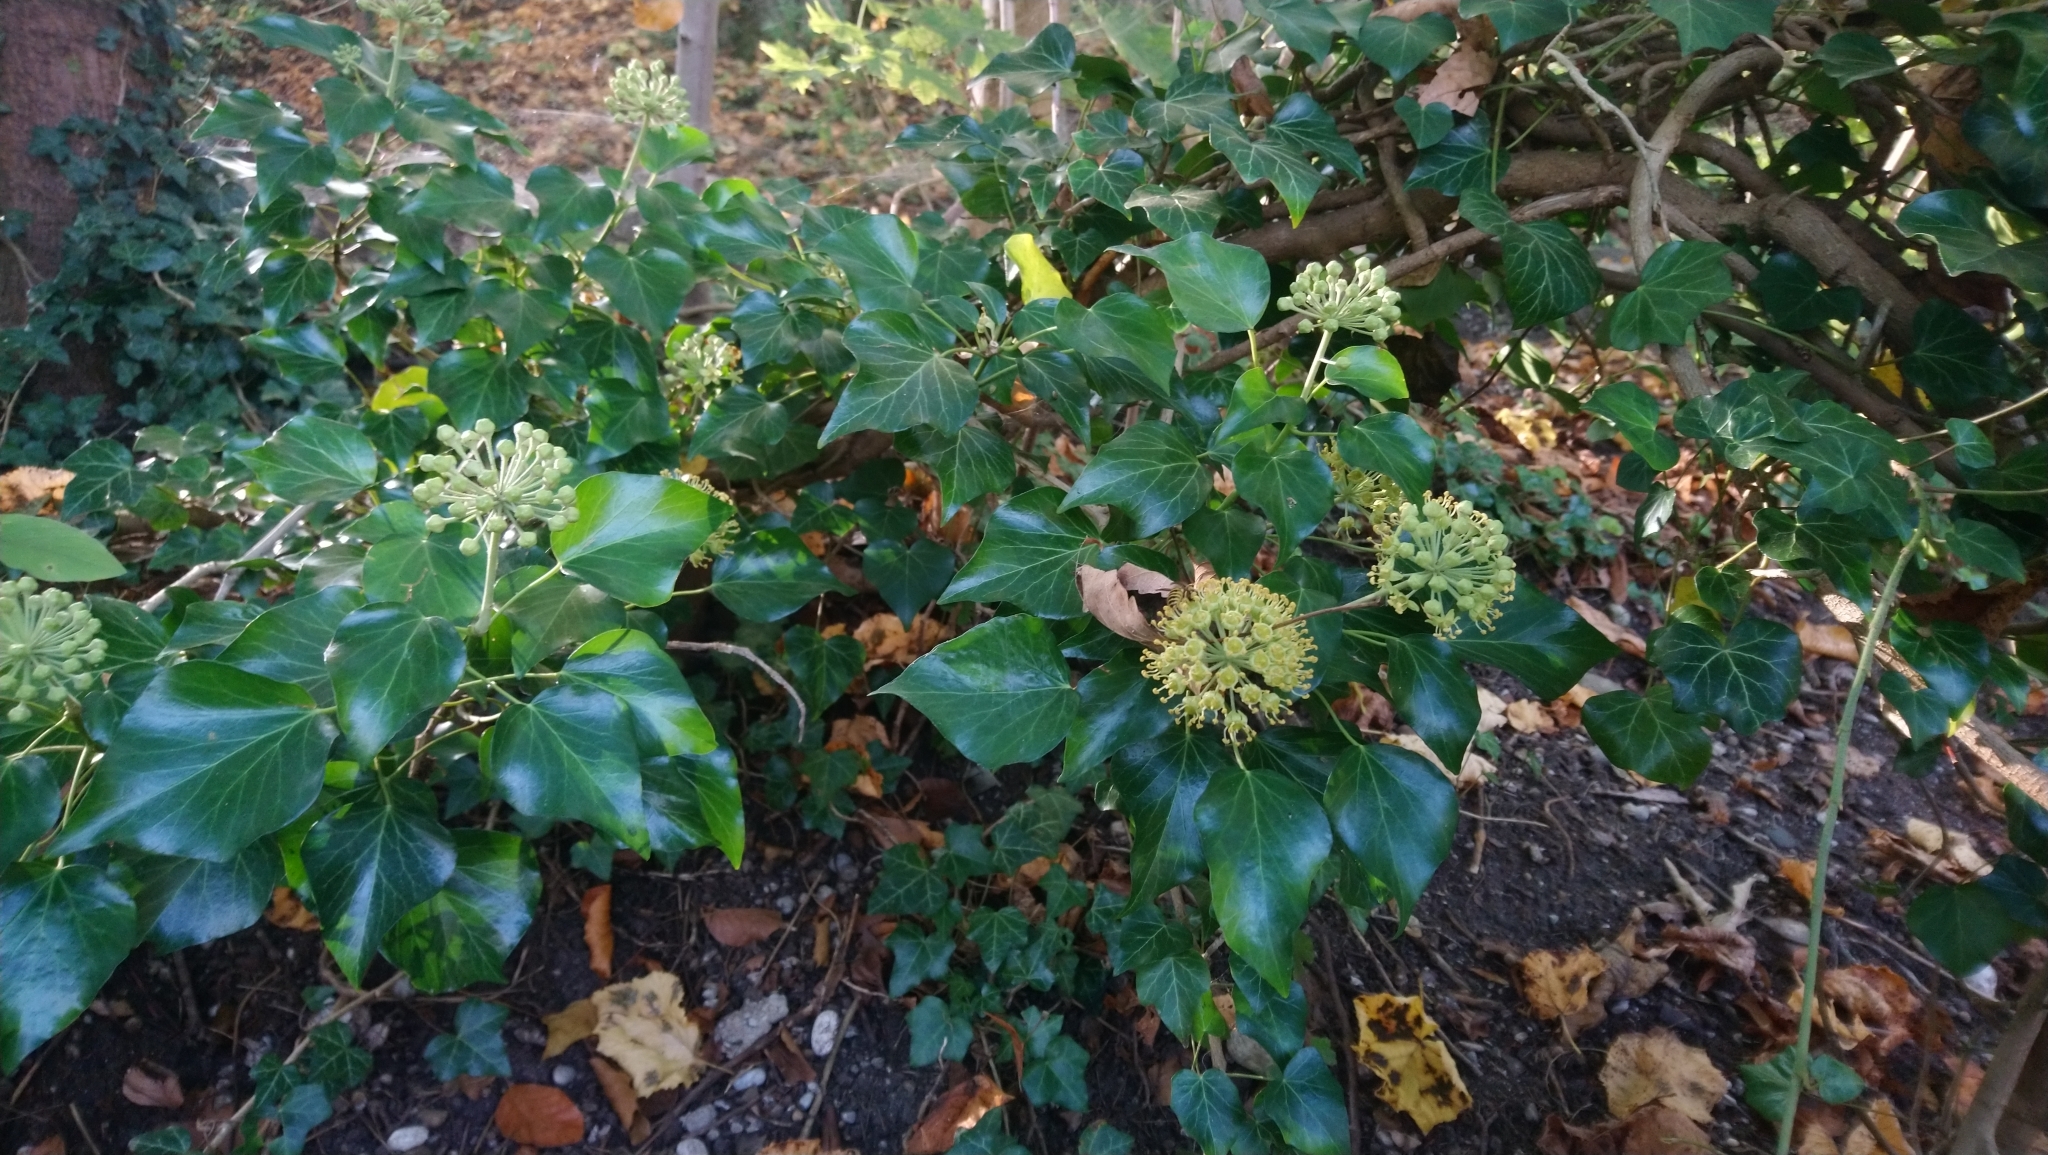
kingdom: Plantae
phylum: Tracheophyta
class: Magnoliopsida
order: Apiales
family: Araliaceae
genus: Hedera
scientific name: Hedera helix
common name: Ivy
